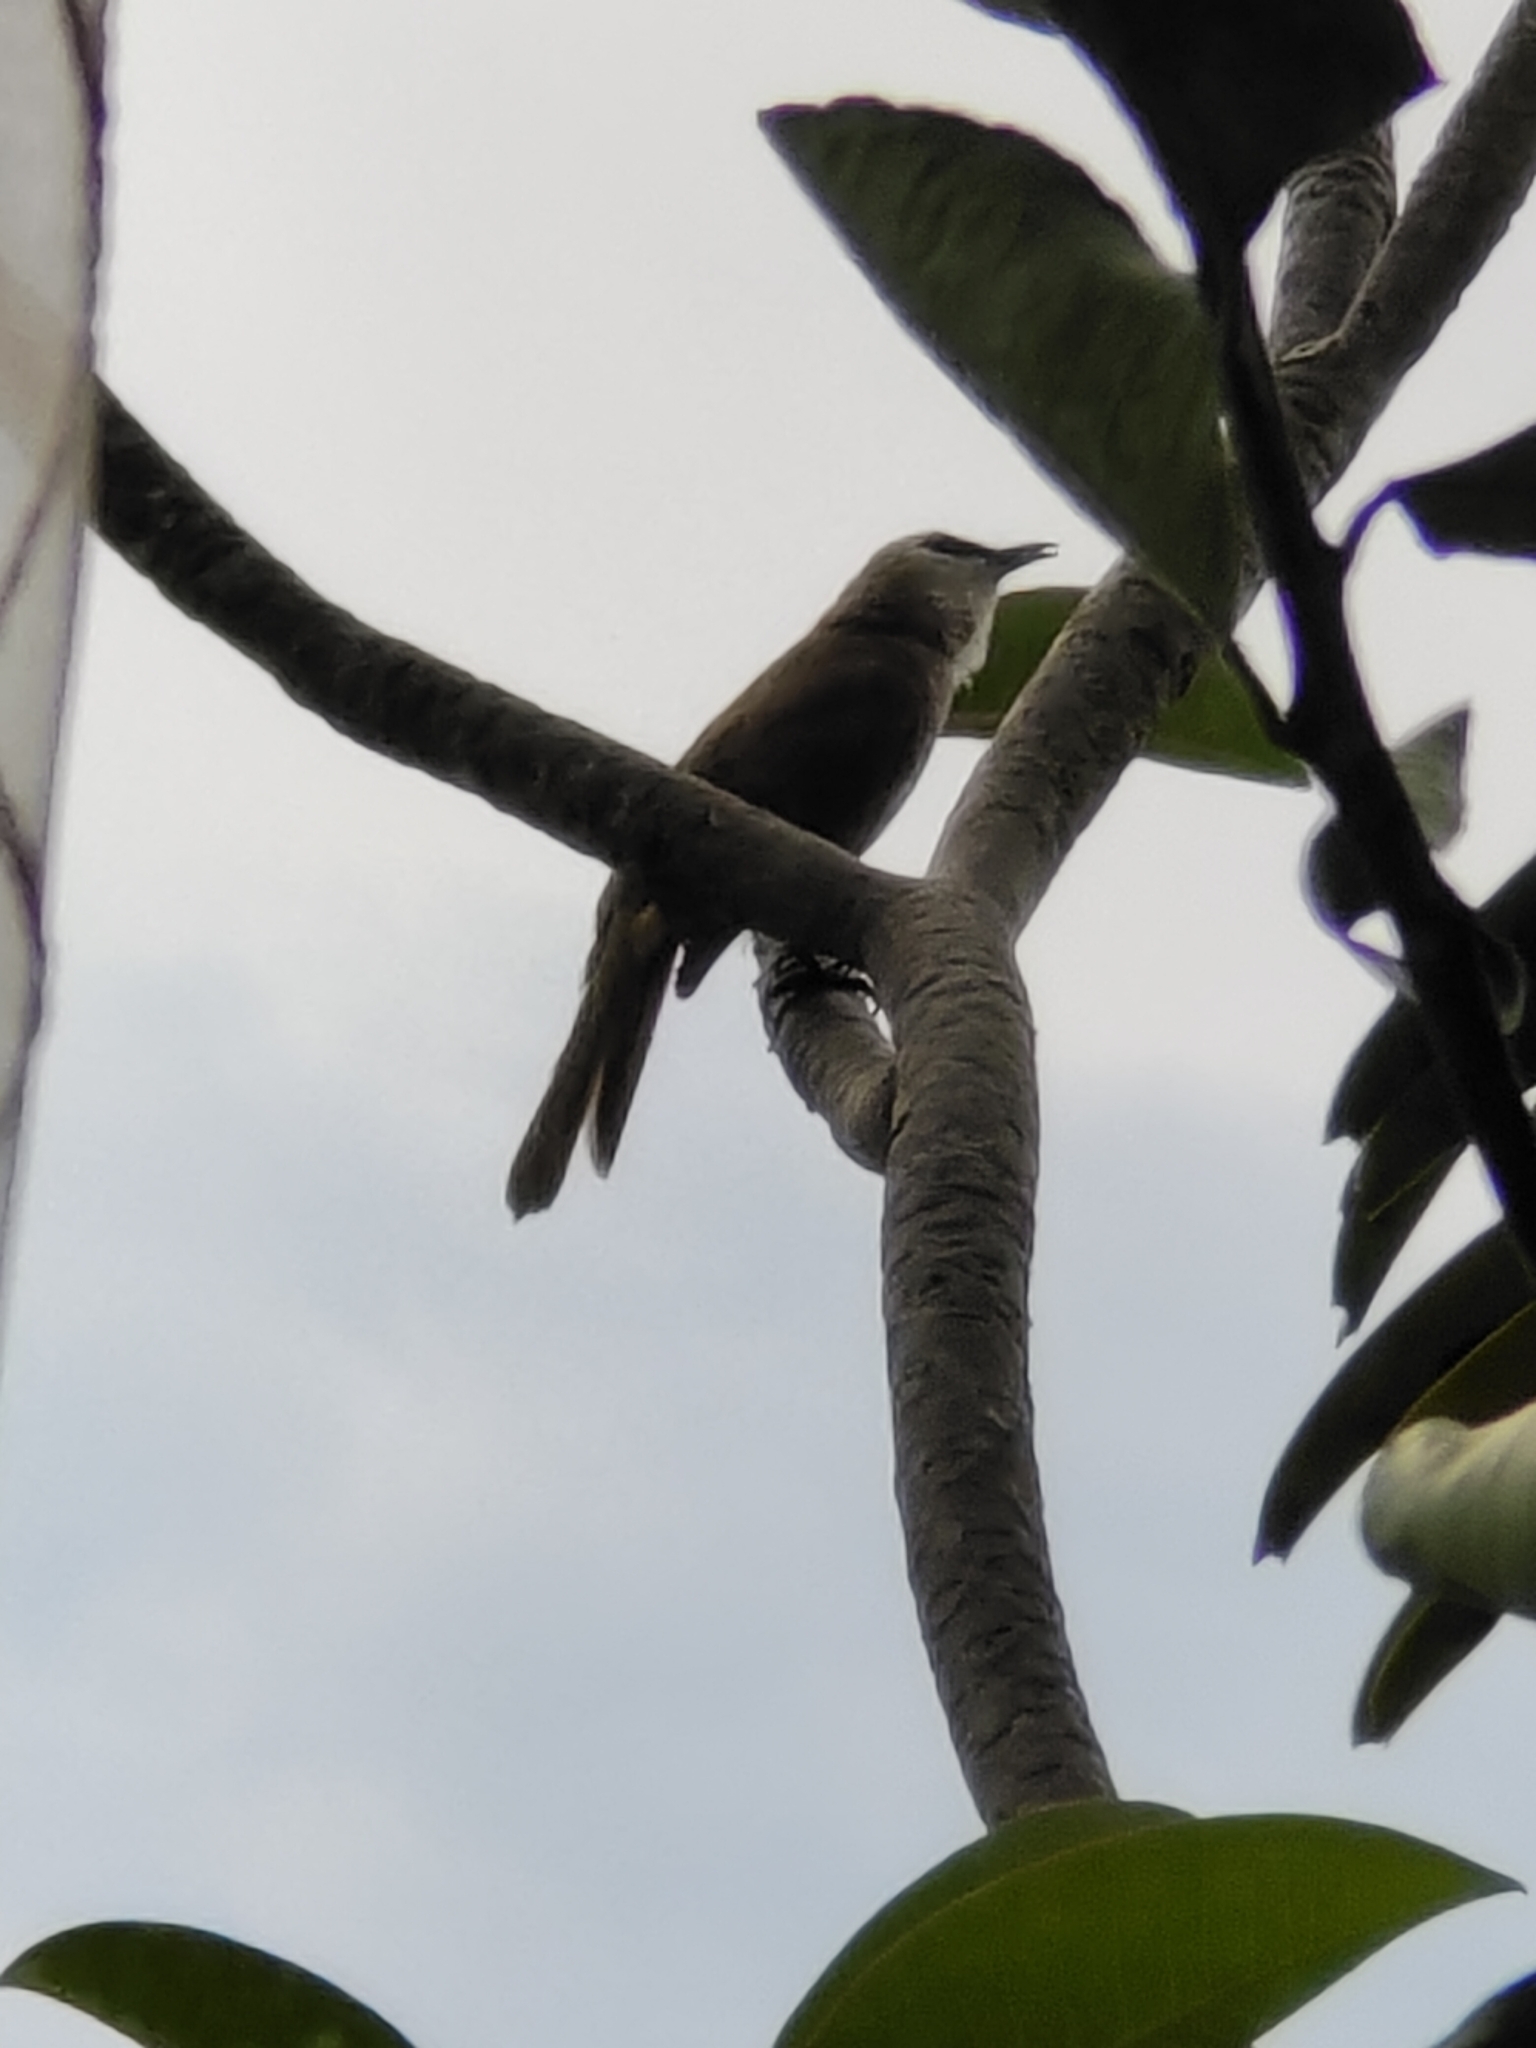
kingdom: Animalia
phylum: Chordata
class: Aves
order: Passeriformes
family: Pycnonotidae
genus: Pycnonotus
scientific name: Pycnonotus goiavier
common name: Yellow-vented bulbul
